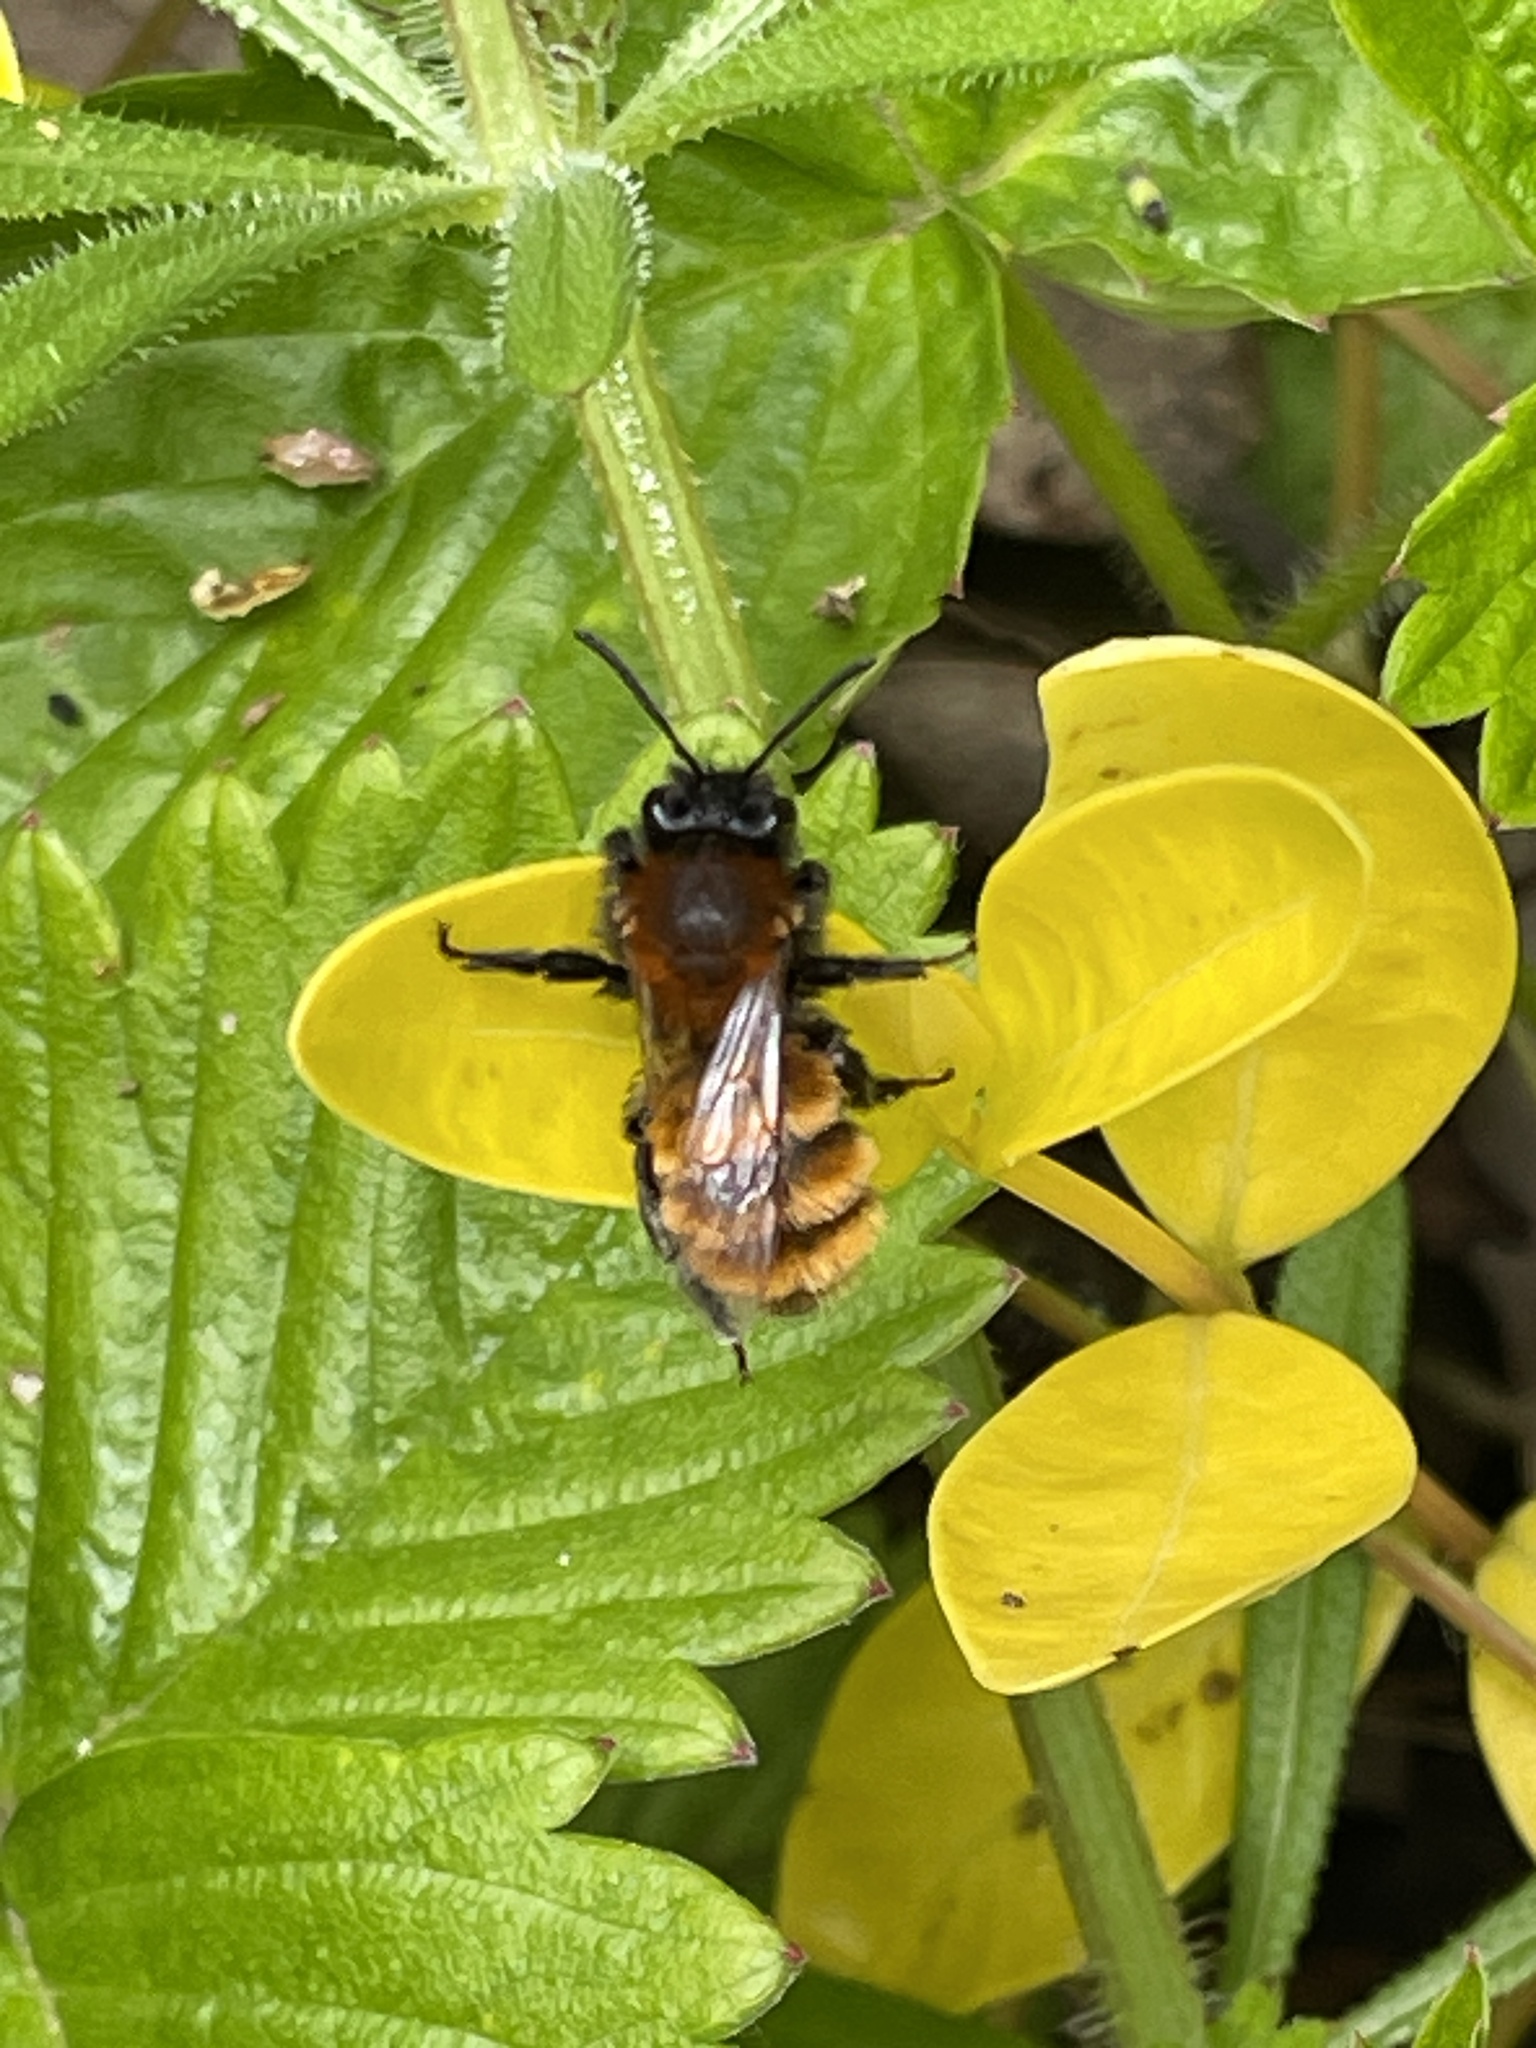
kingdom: Animalia
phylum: Arthropoda
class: Insecta
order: Hymenoptera
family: Andrenidae
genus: Andrena
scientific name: Andrena fulva
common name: Tawny mining bee
